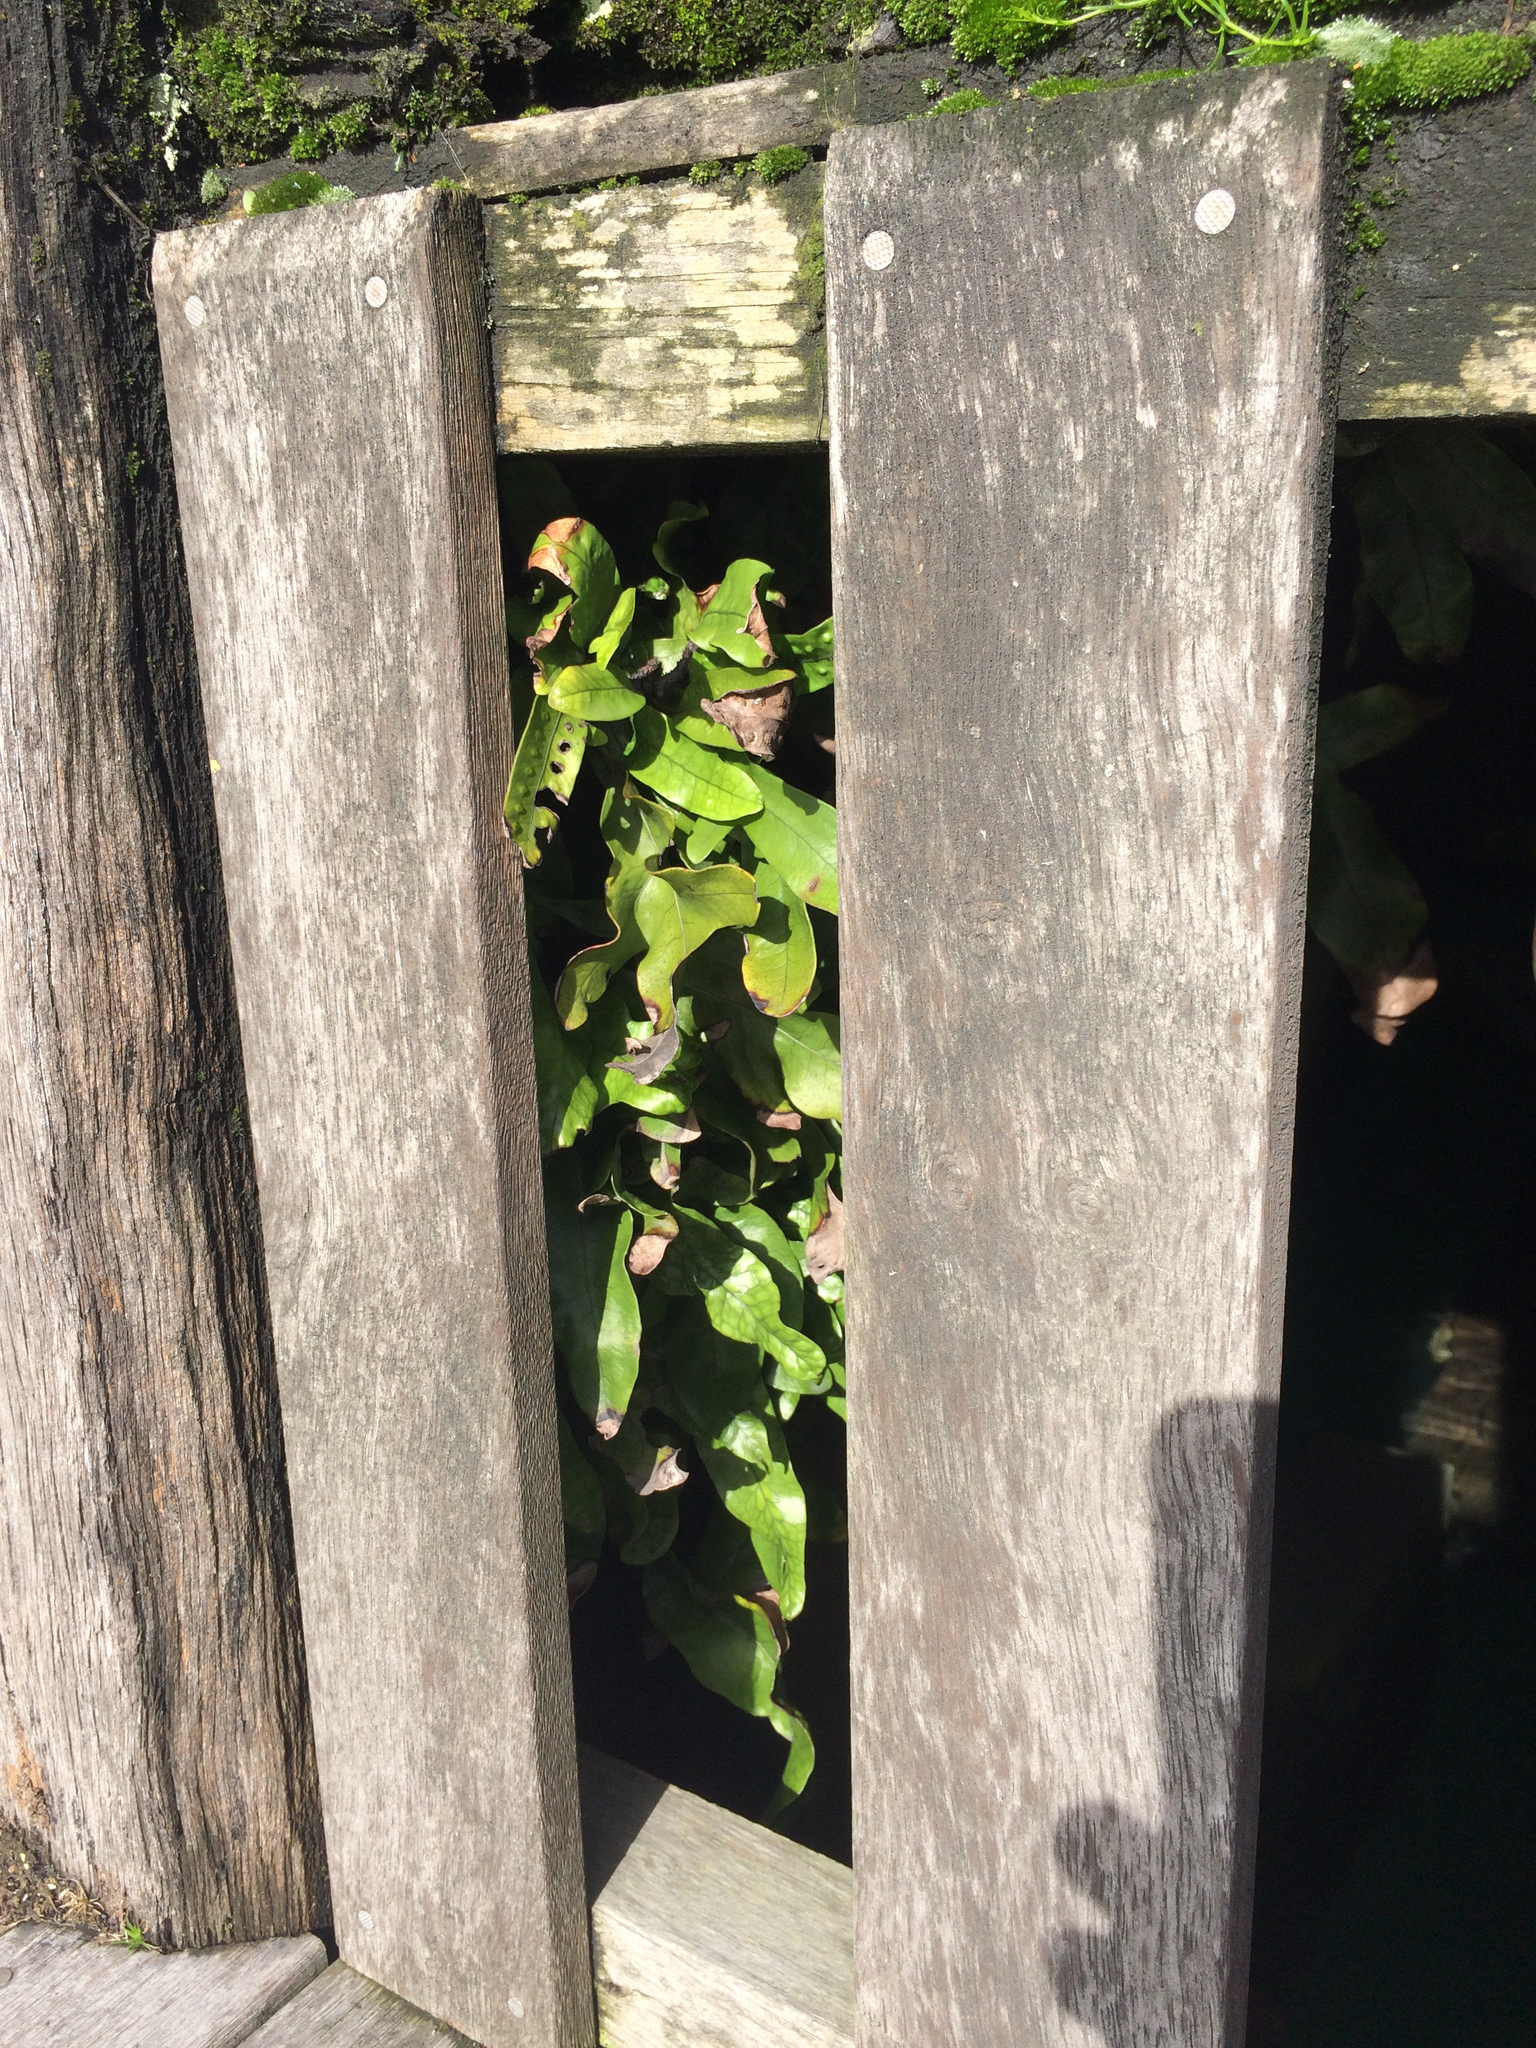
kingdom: Plantae
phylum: Tracheophyta
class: Polypodiopsida
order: Polypodiales
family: Polypodiaceae
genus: Lecanopteris
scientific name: Lecanopteris pustulata
